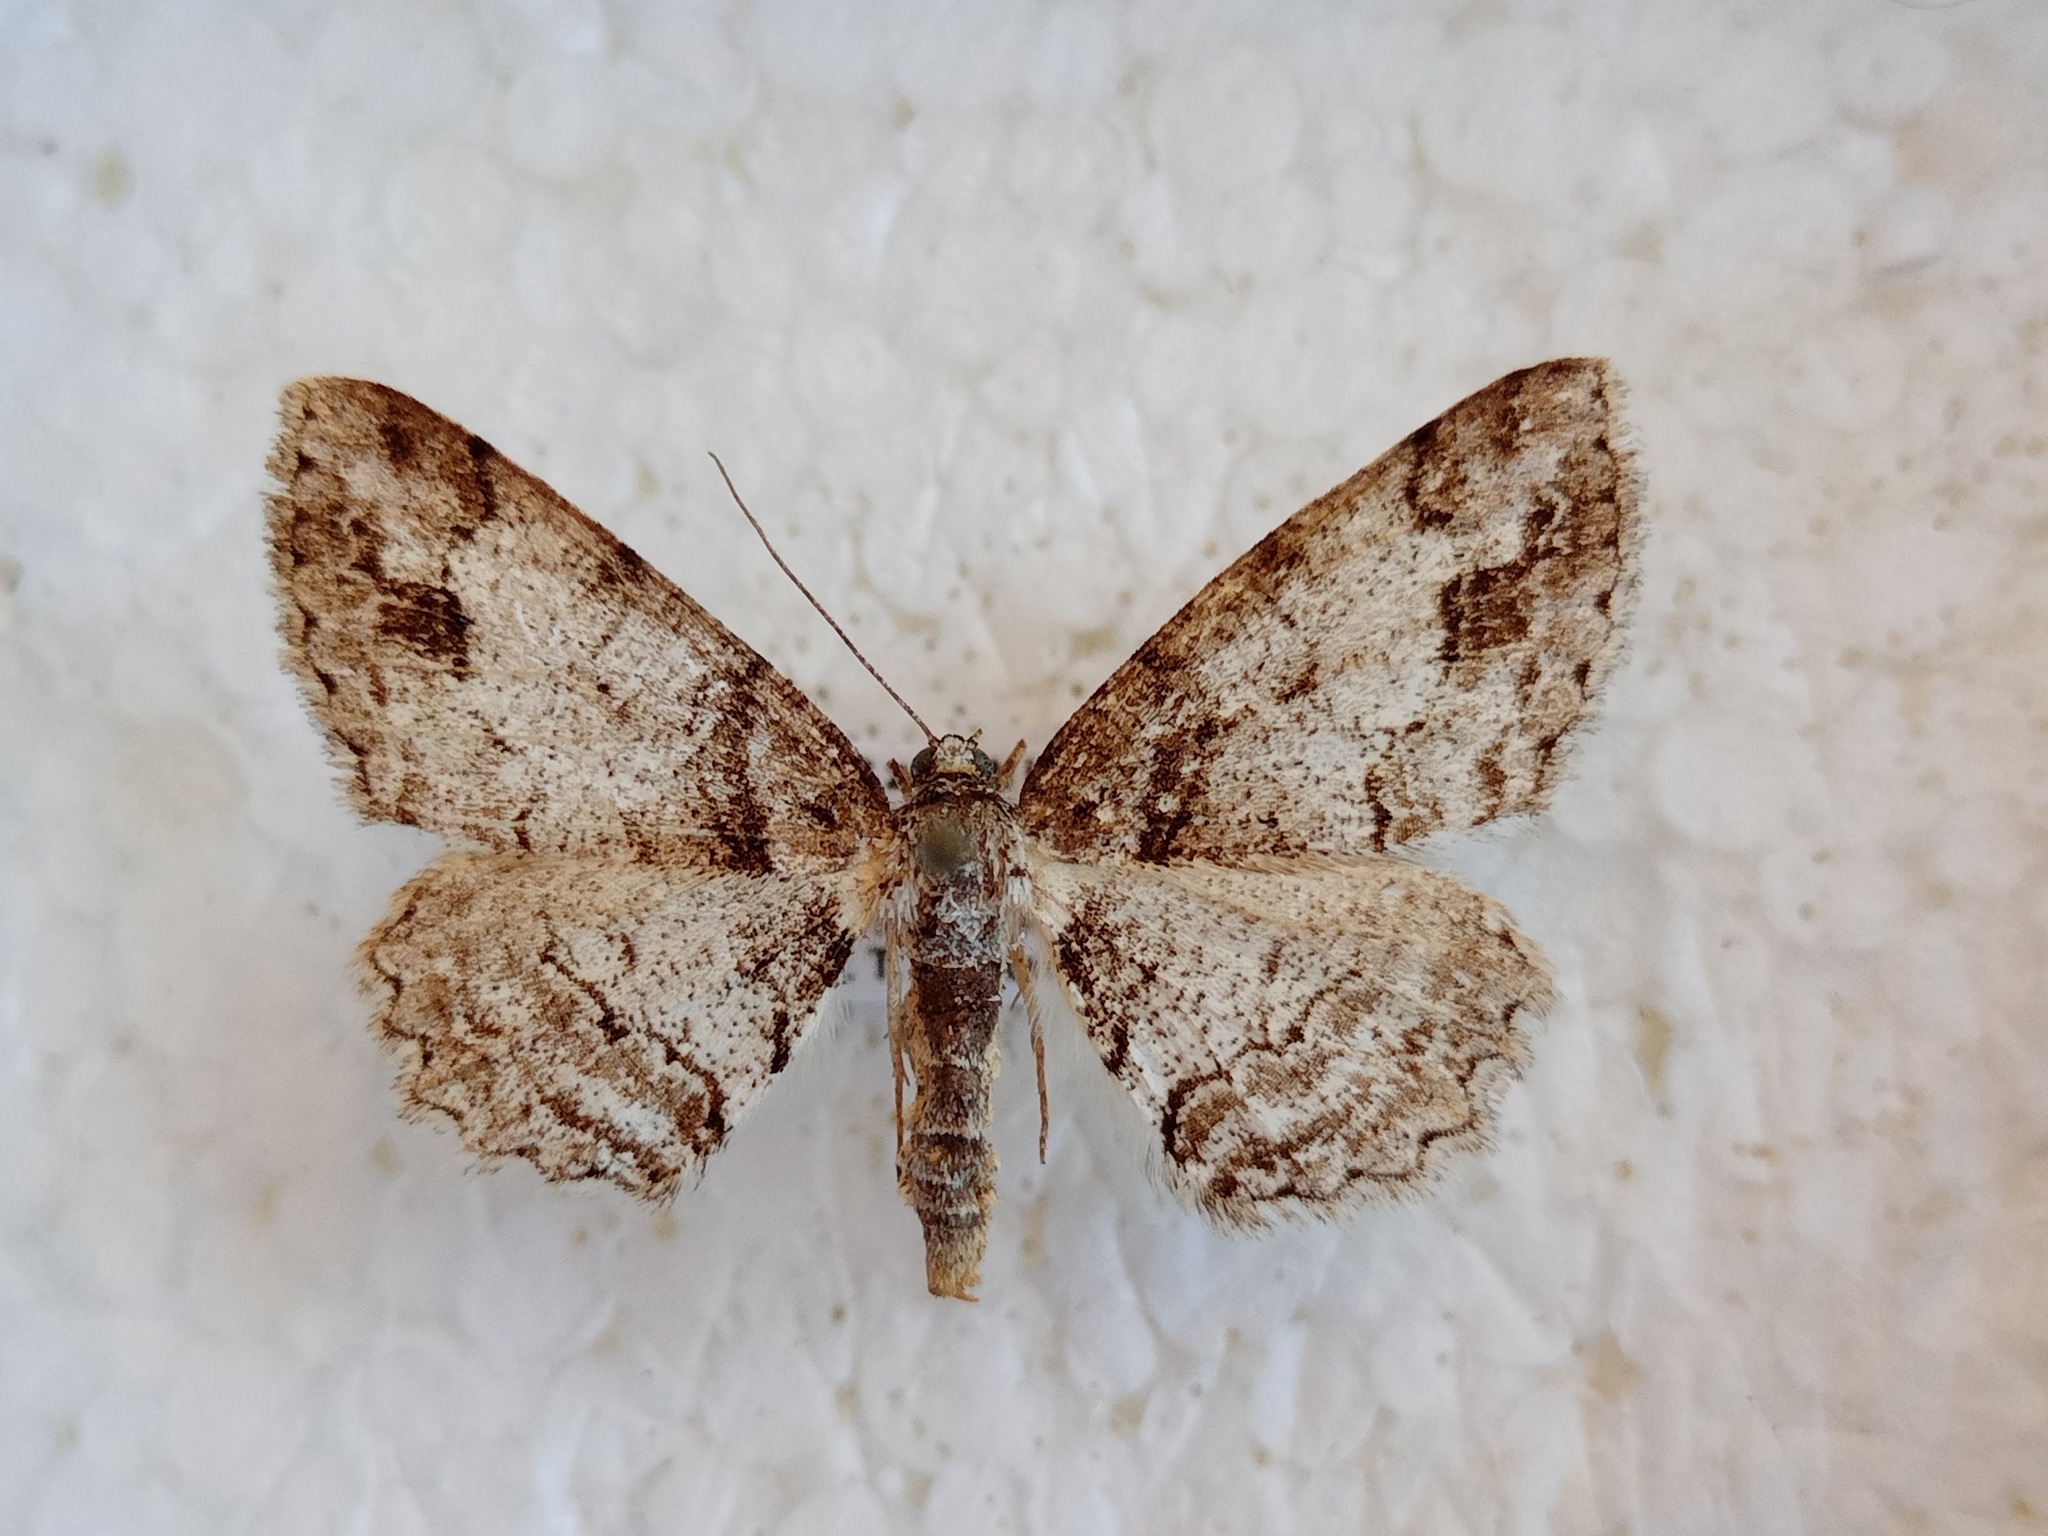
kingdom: Animalia
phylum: Arthropoda
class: Insecta
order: Lepidoptera
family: Geometridae
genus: Paradarisa
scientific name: Paradarisa consonaria
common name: Square spot
